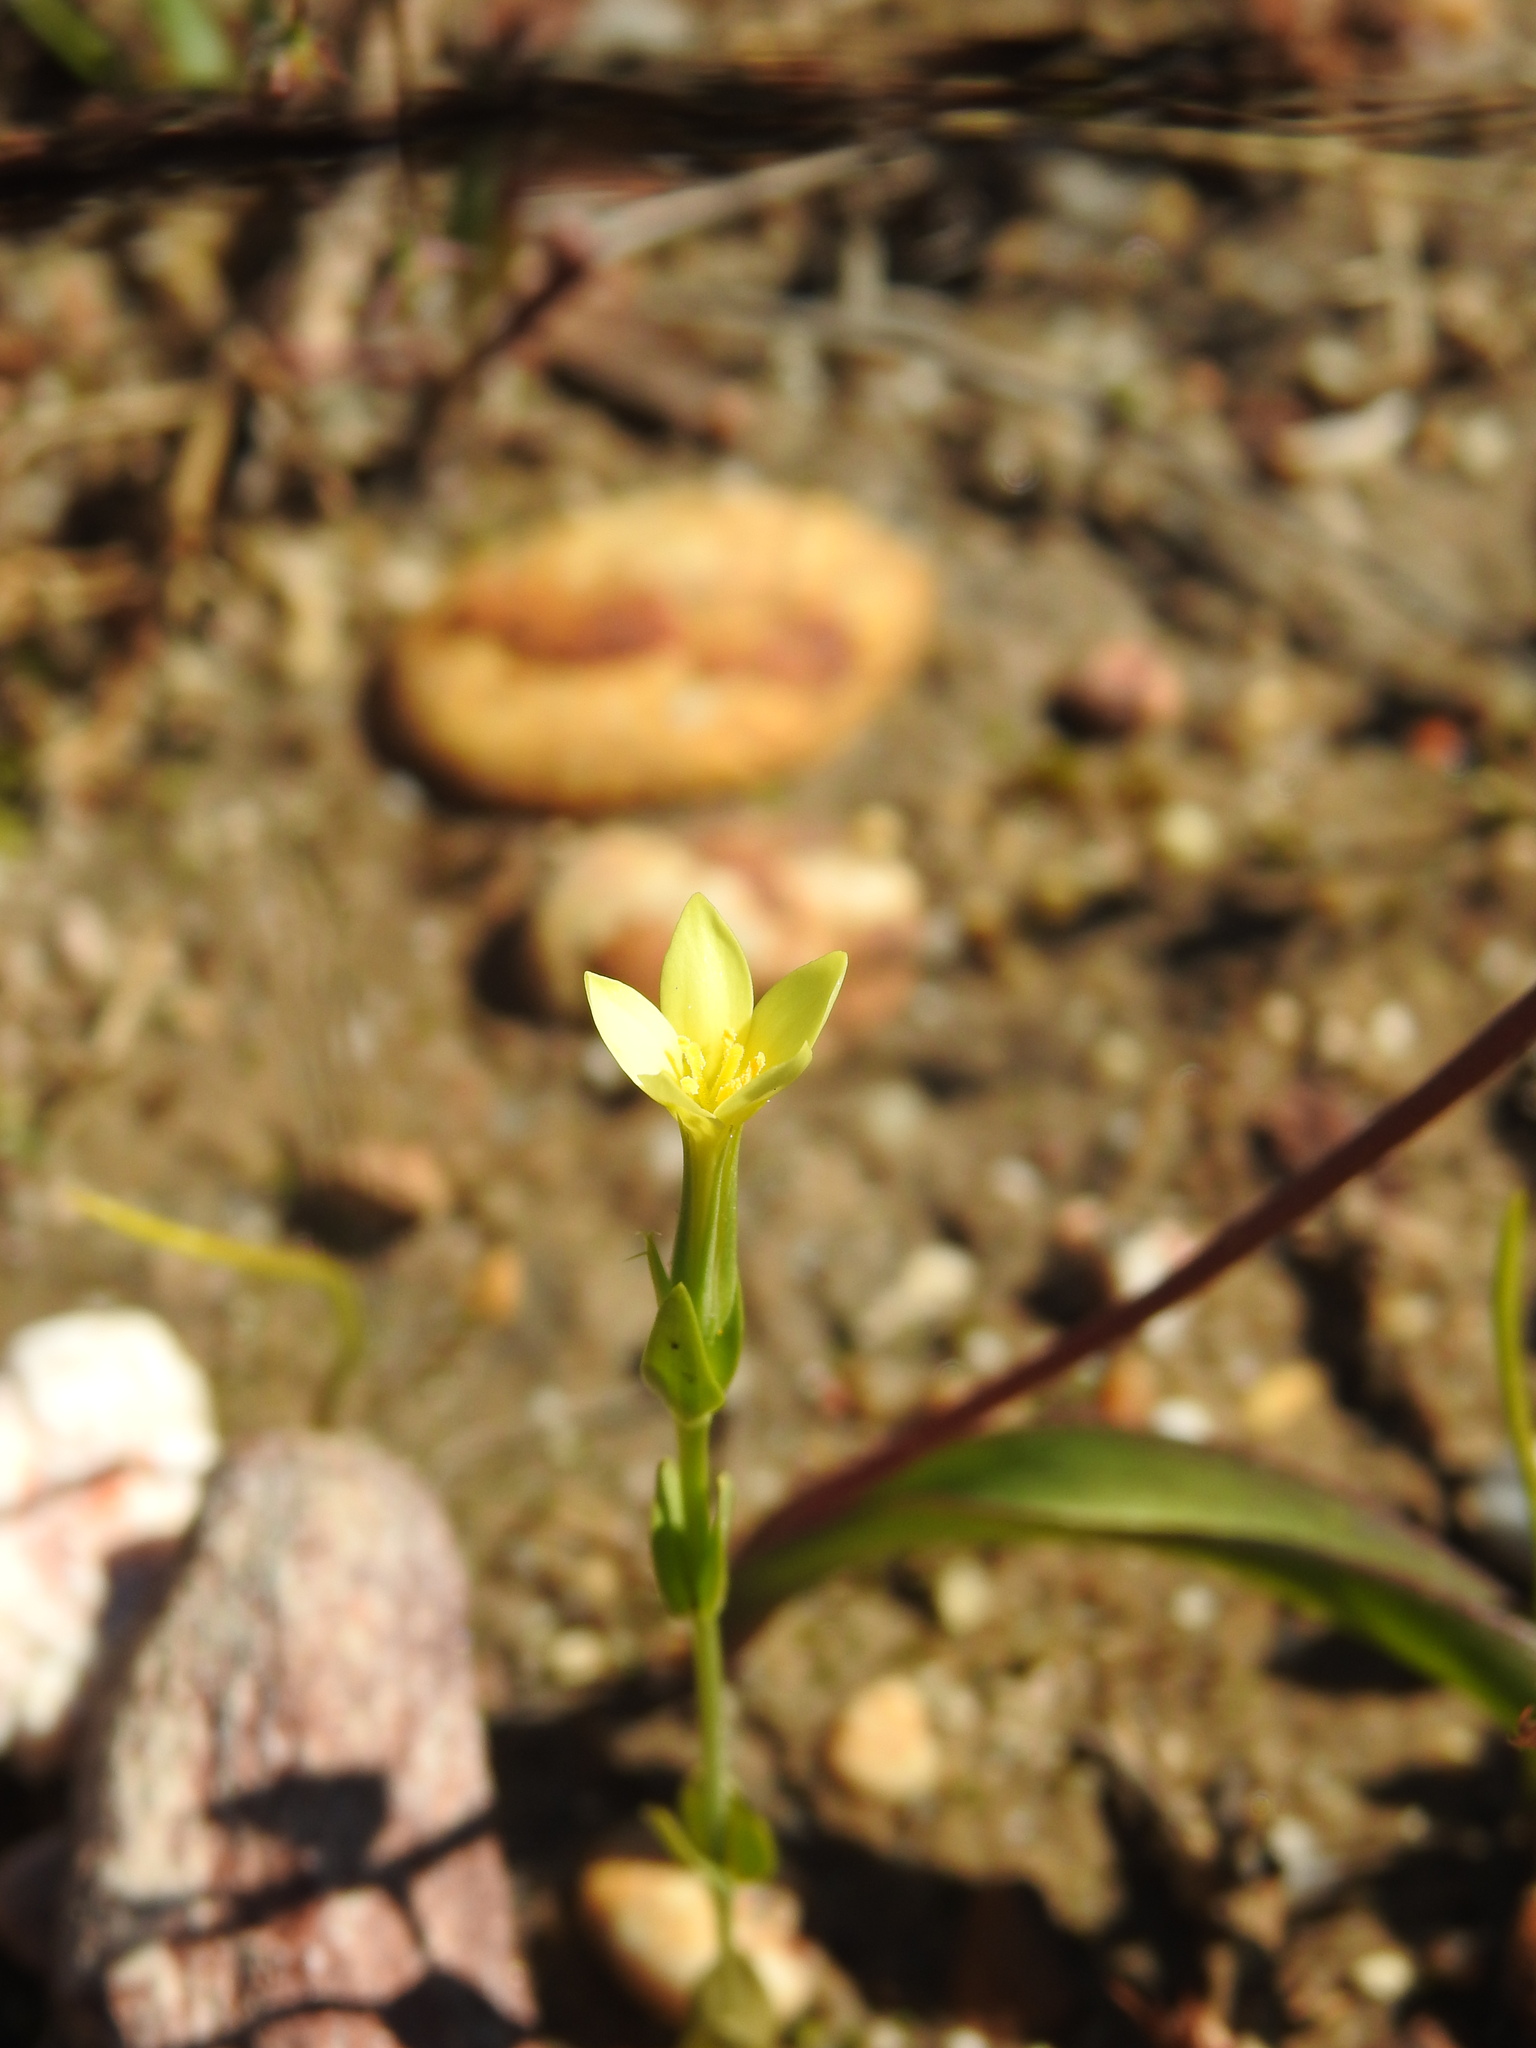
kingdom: Plantae
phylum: Tracheophyta
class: Magnoliopsida
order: Gentianales
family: Gentianaceae
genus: Centaurium
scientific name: Centaurium maritimum
